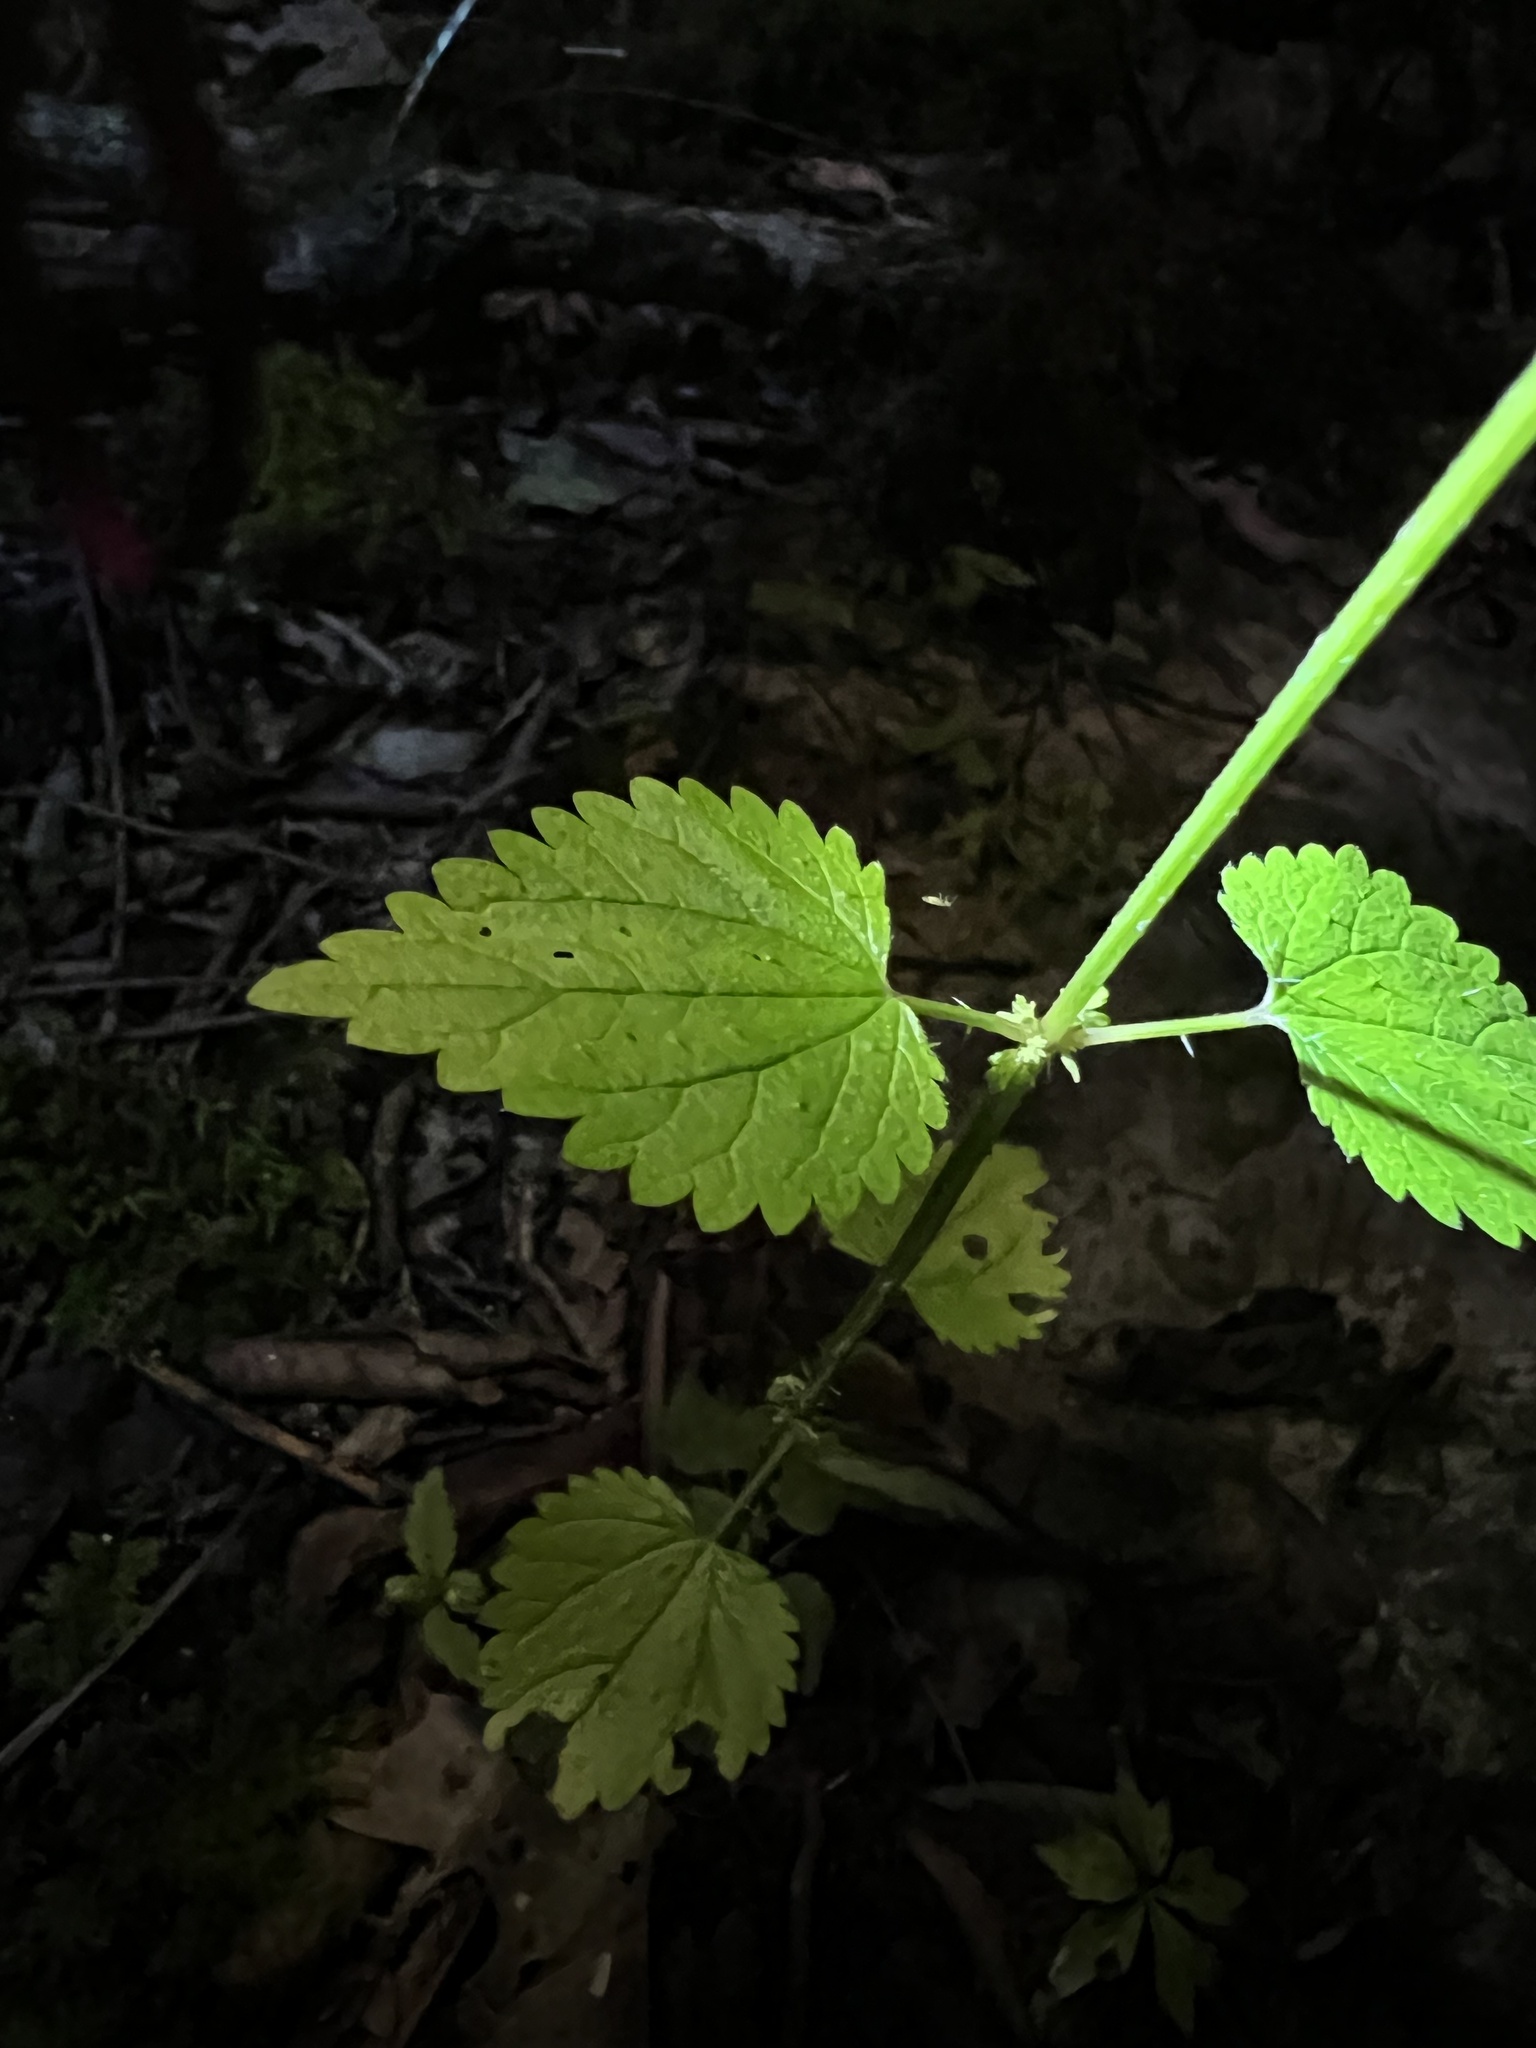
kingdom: Plantae
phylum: Tracheophyta
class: Magnoliopsida
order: Rosales
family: Urticaceae
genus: Urtica
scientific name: Urtica chamaedryoides
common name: Heart-leaf nettle
